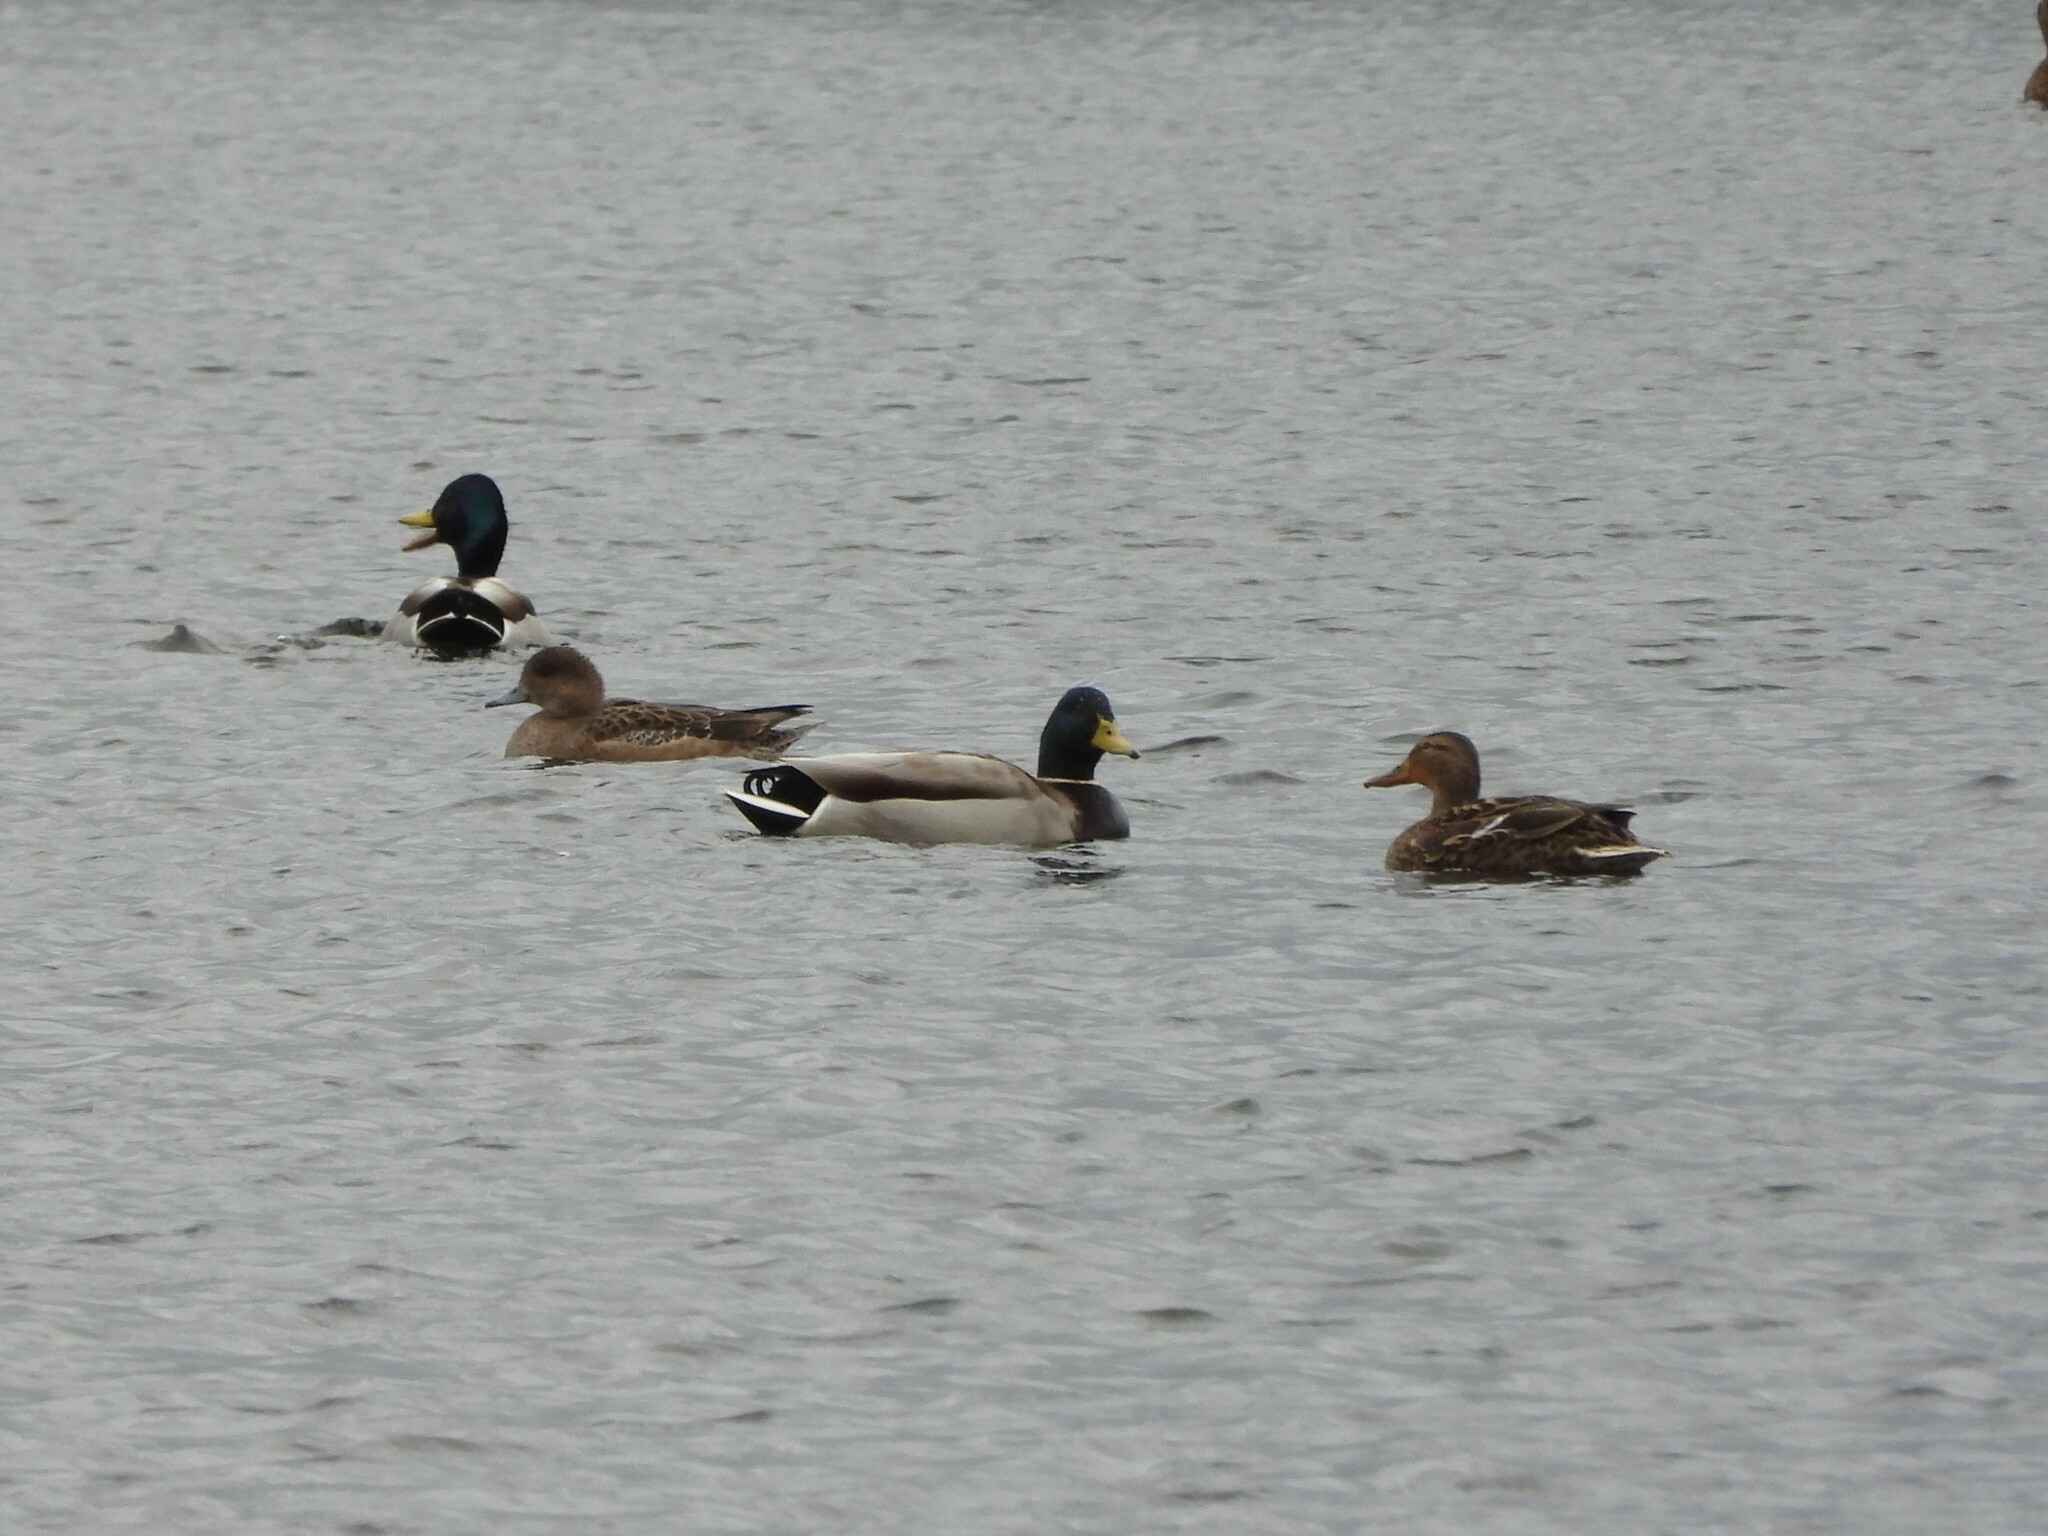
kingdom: Animalia
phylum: Chordata
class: Aves
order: Anseriformes
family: Anatidae
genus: Anas
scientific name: Anas platyrhynchos
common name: Mallard
